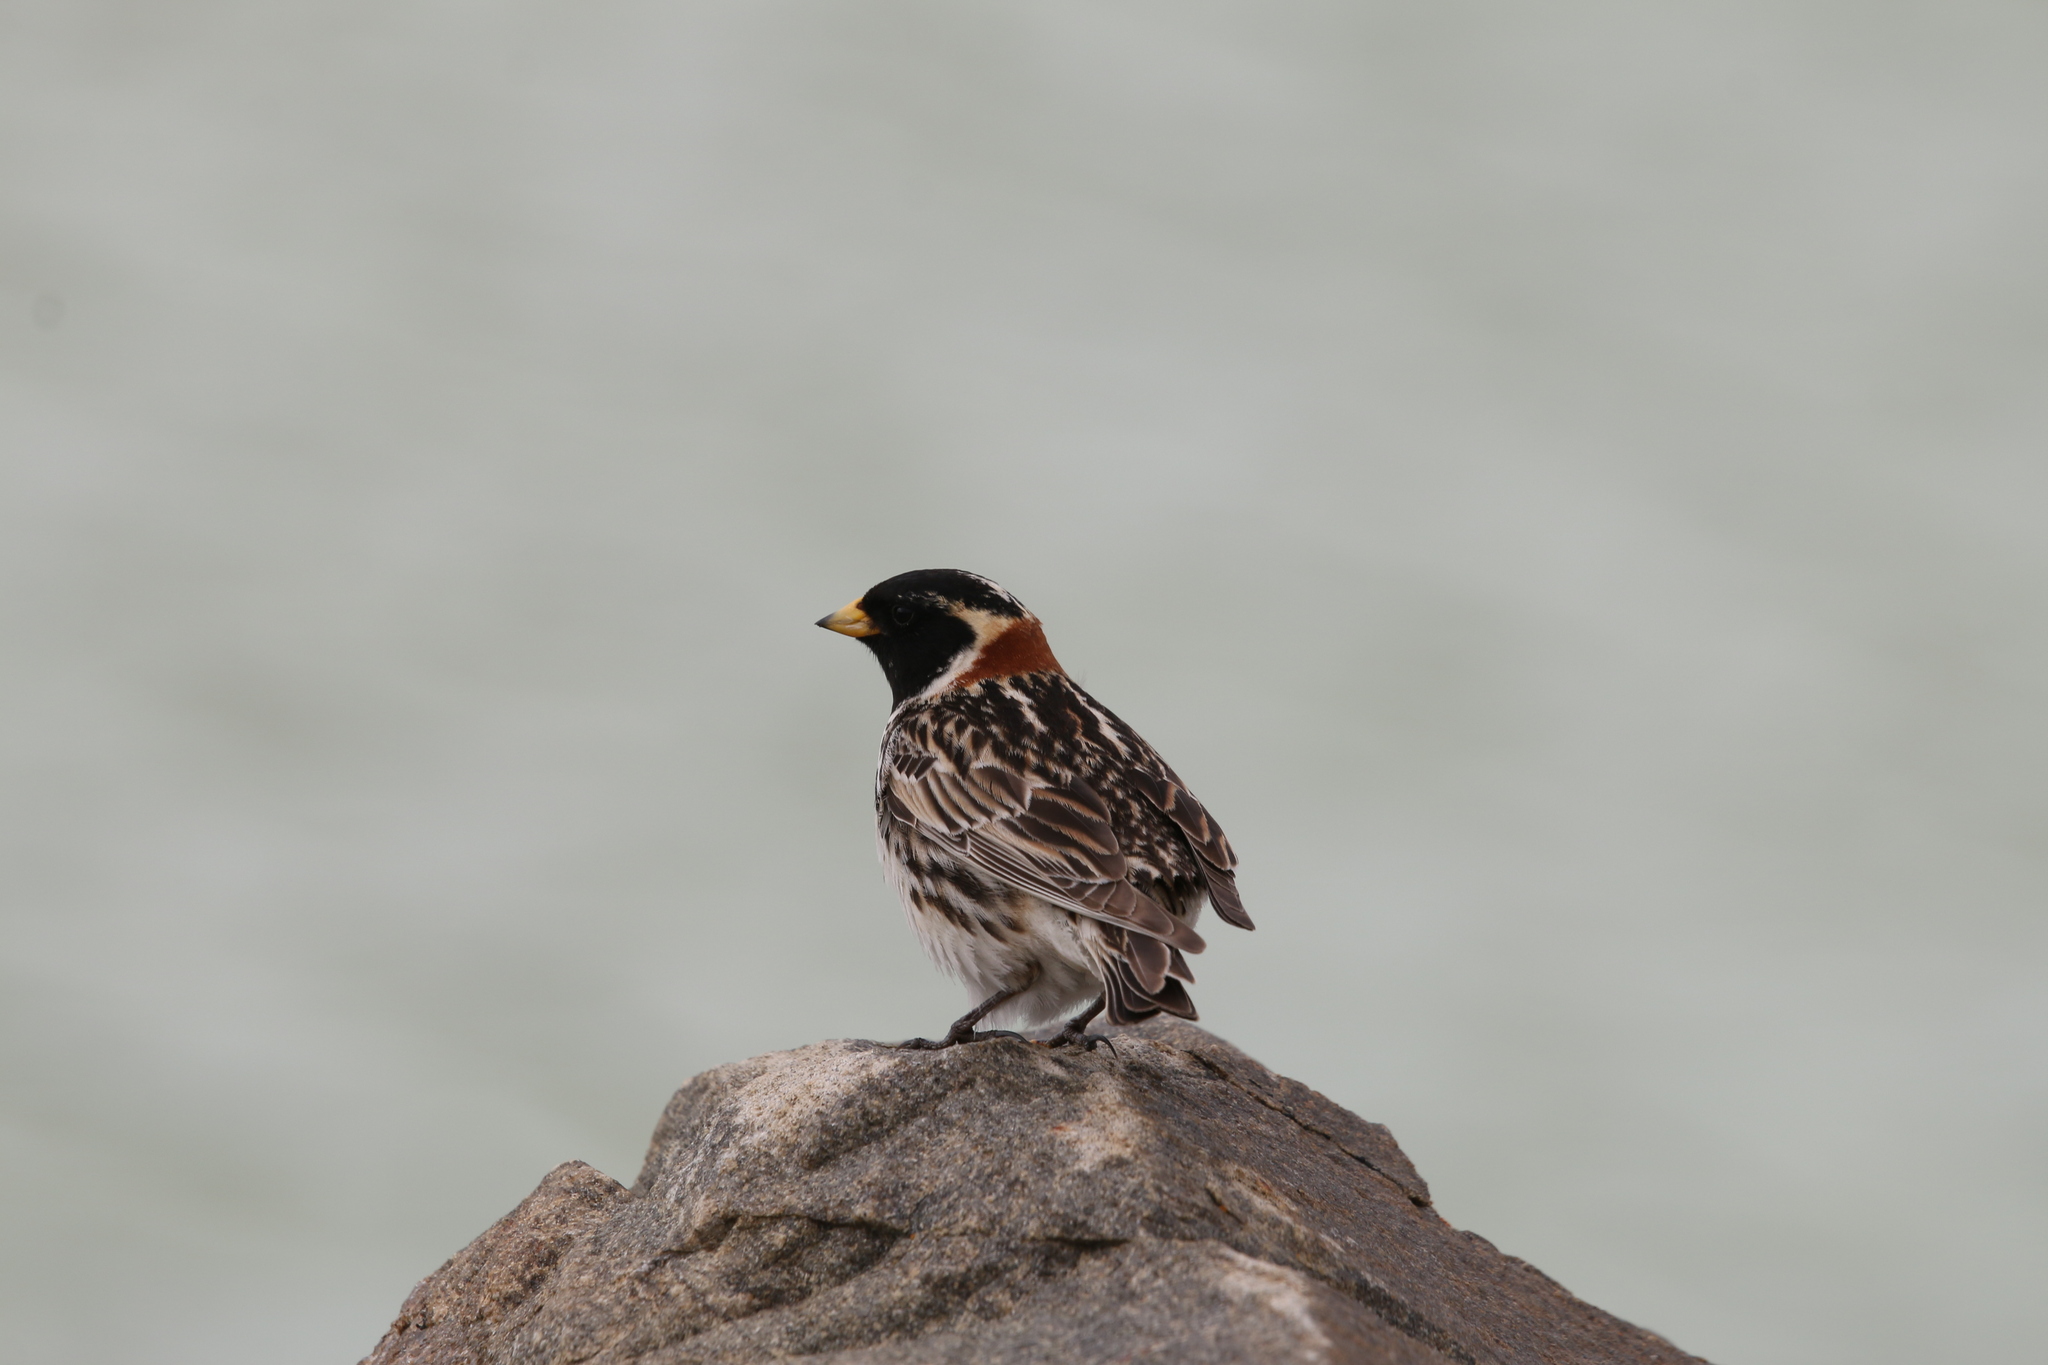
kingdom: Animalia
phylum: Chordata
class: Aves
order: Passeriformes
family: Calcariidae
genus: Calcarius
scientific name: Calcarius lapponicus
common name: Lapland longspur
